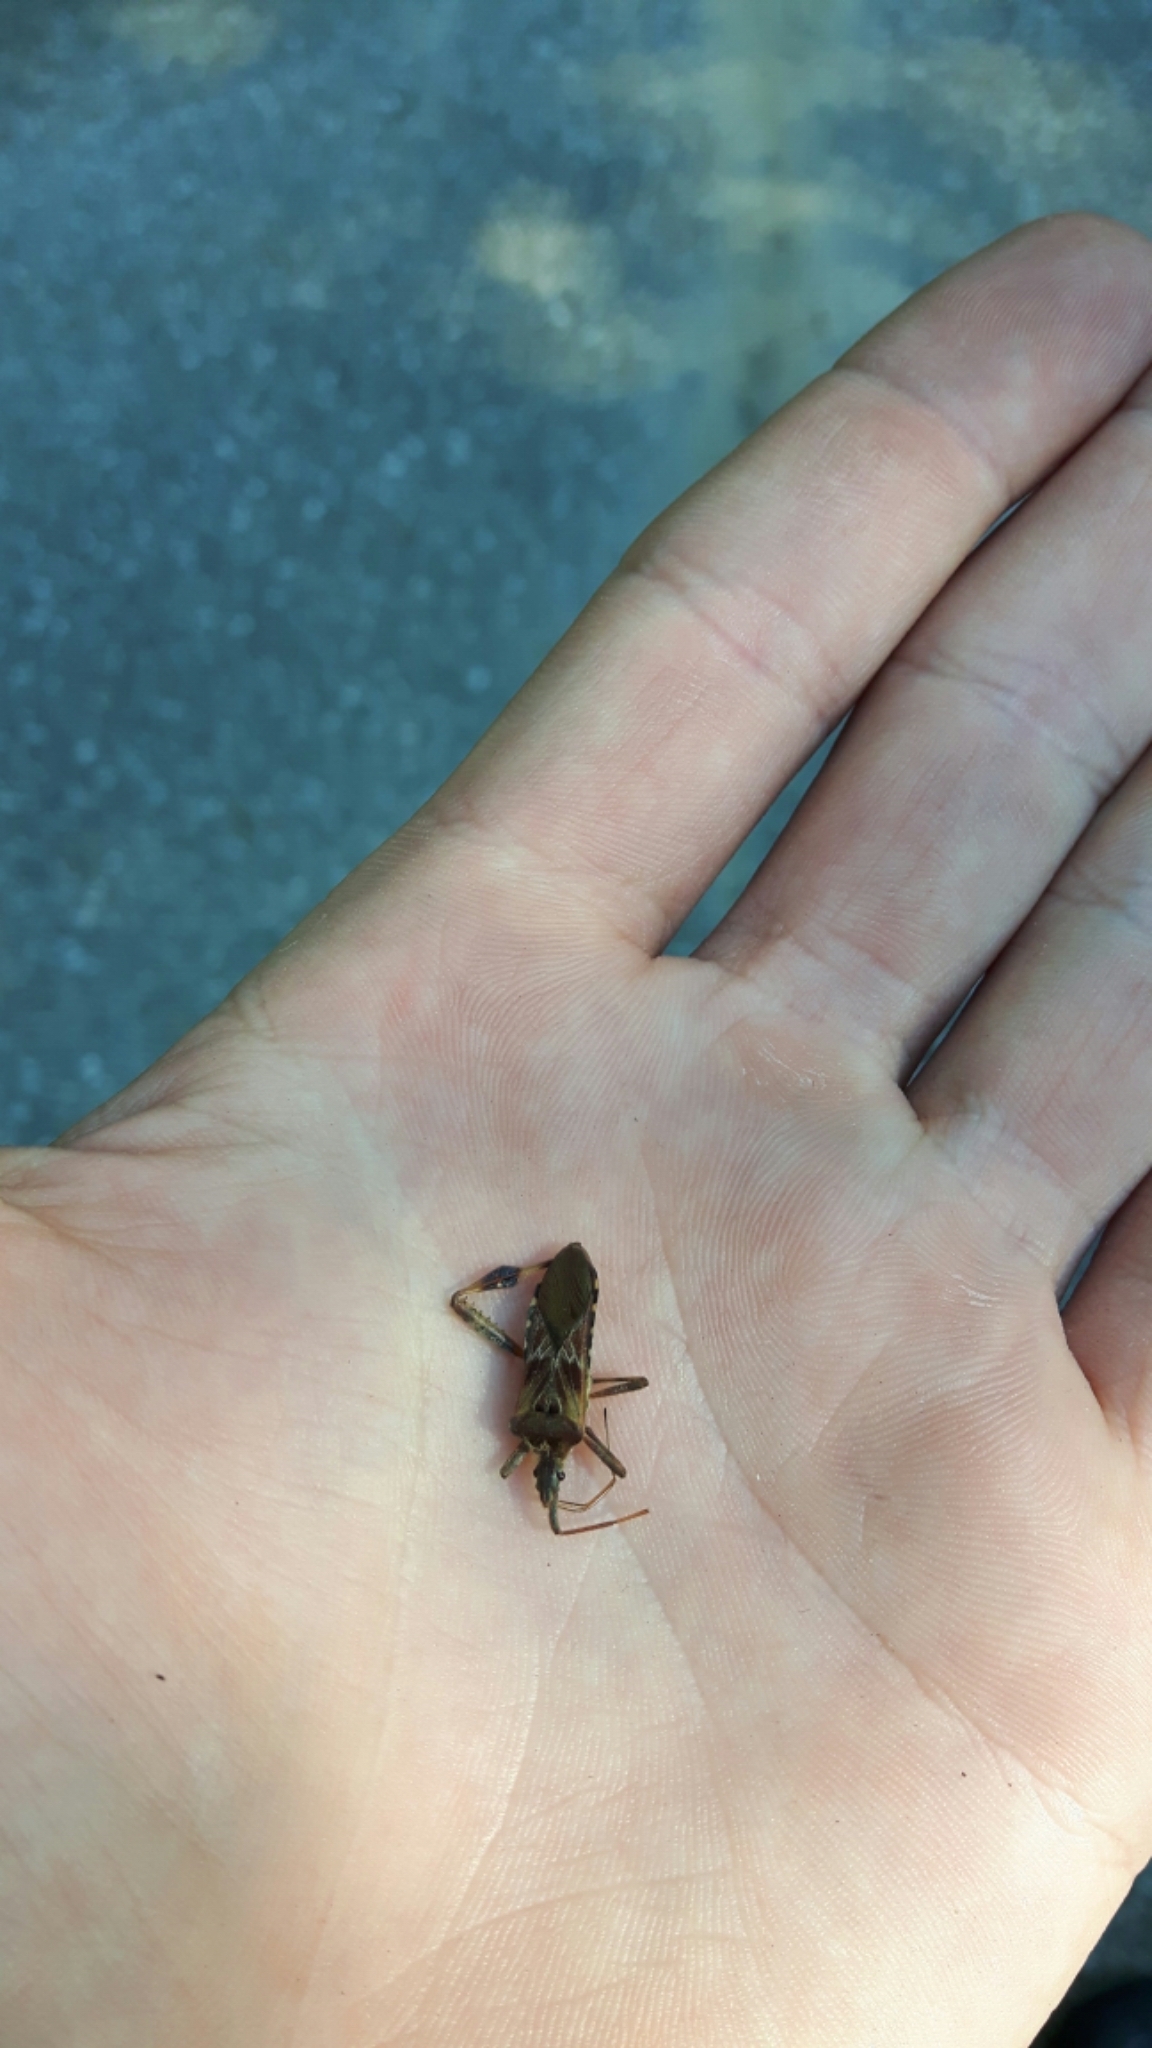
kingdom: Animalia
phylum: Arthropoda
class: Insecta
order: Hemiptera
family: Coreidae
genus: Leptoglossus
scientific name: Leptoglossus occidentalis
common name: Western conifer-seed bug
